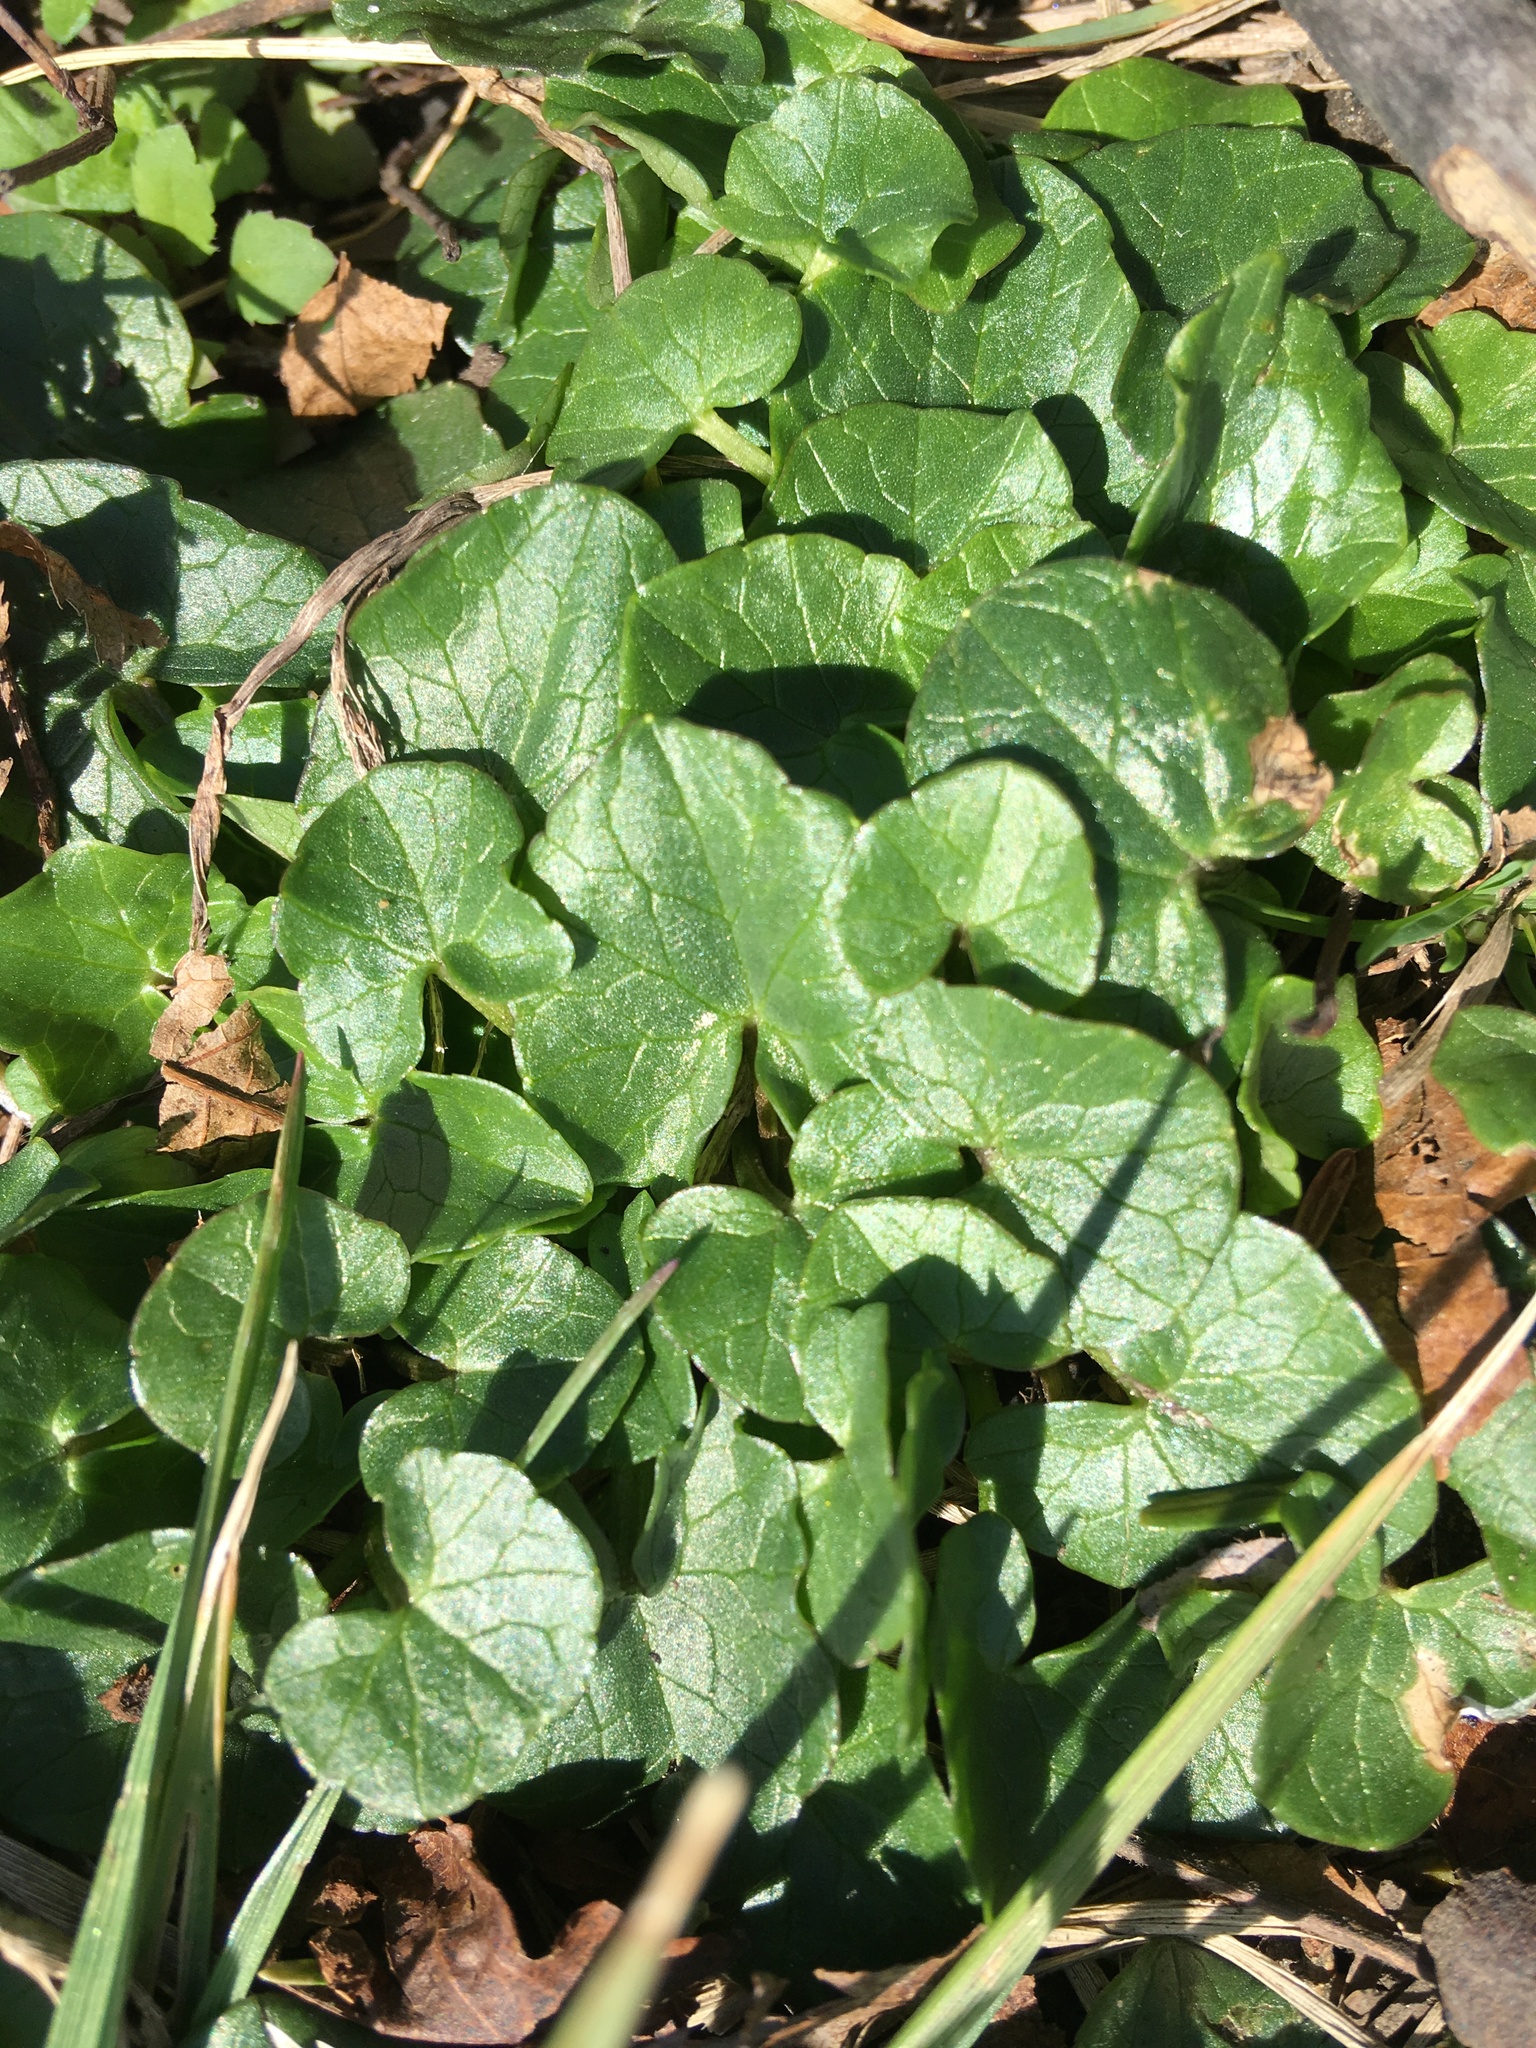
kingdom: Plantae
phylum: Tracheophyta
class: Magnoliopsida
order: Ranunculales
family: Ranunculaceae
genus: Ficaria
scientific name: Ficaria verna
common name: Lesser celandine
